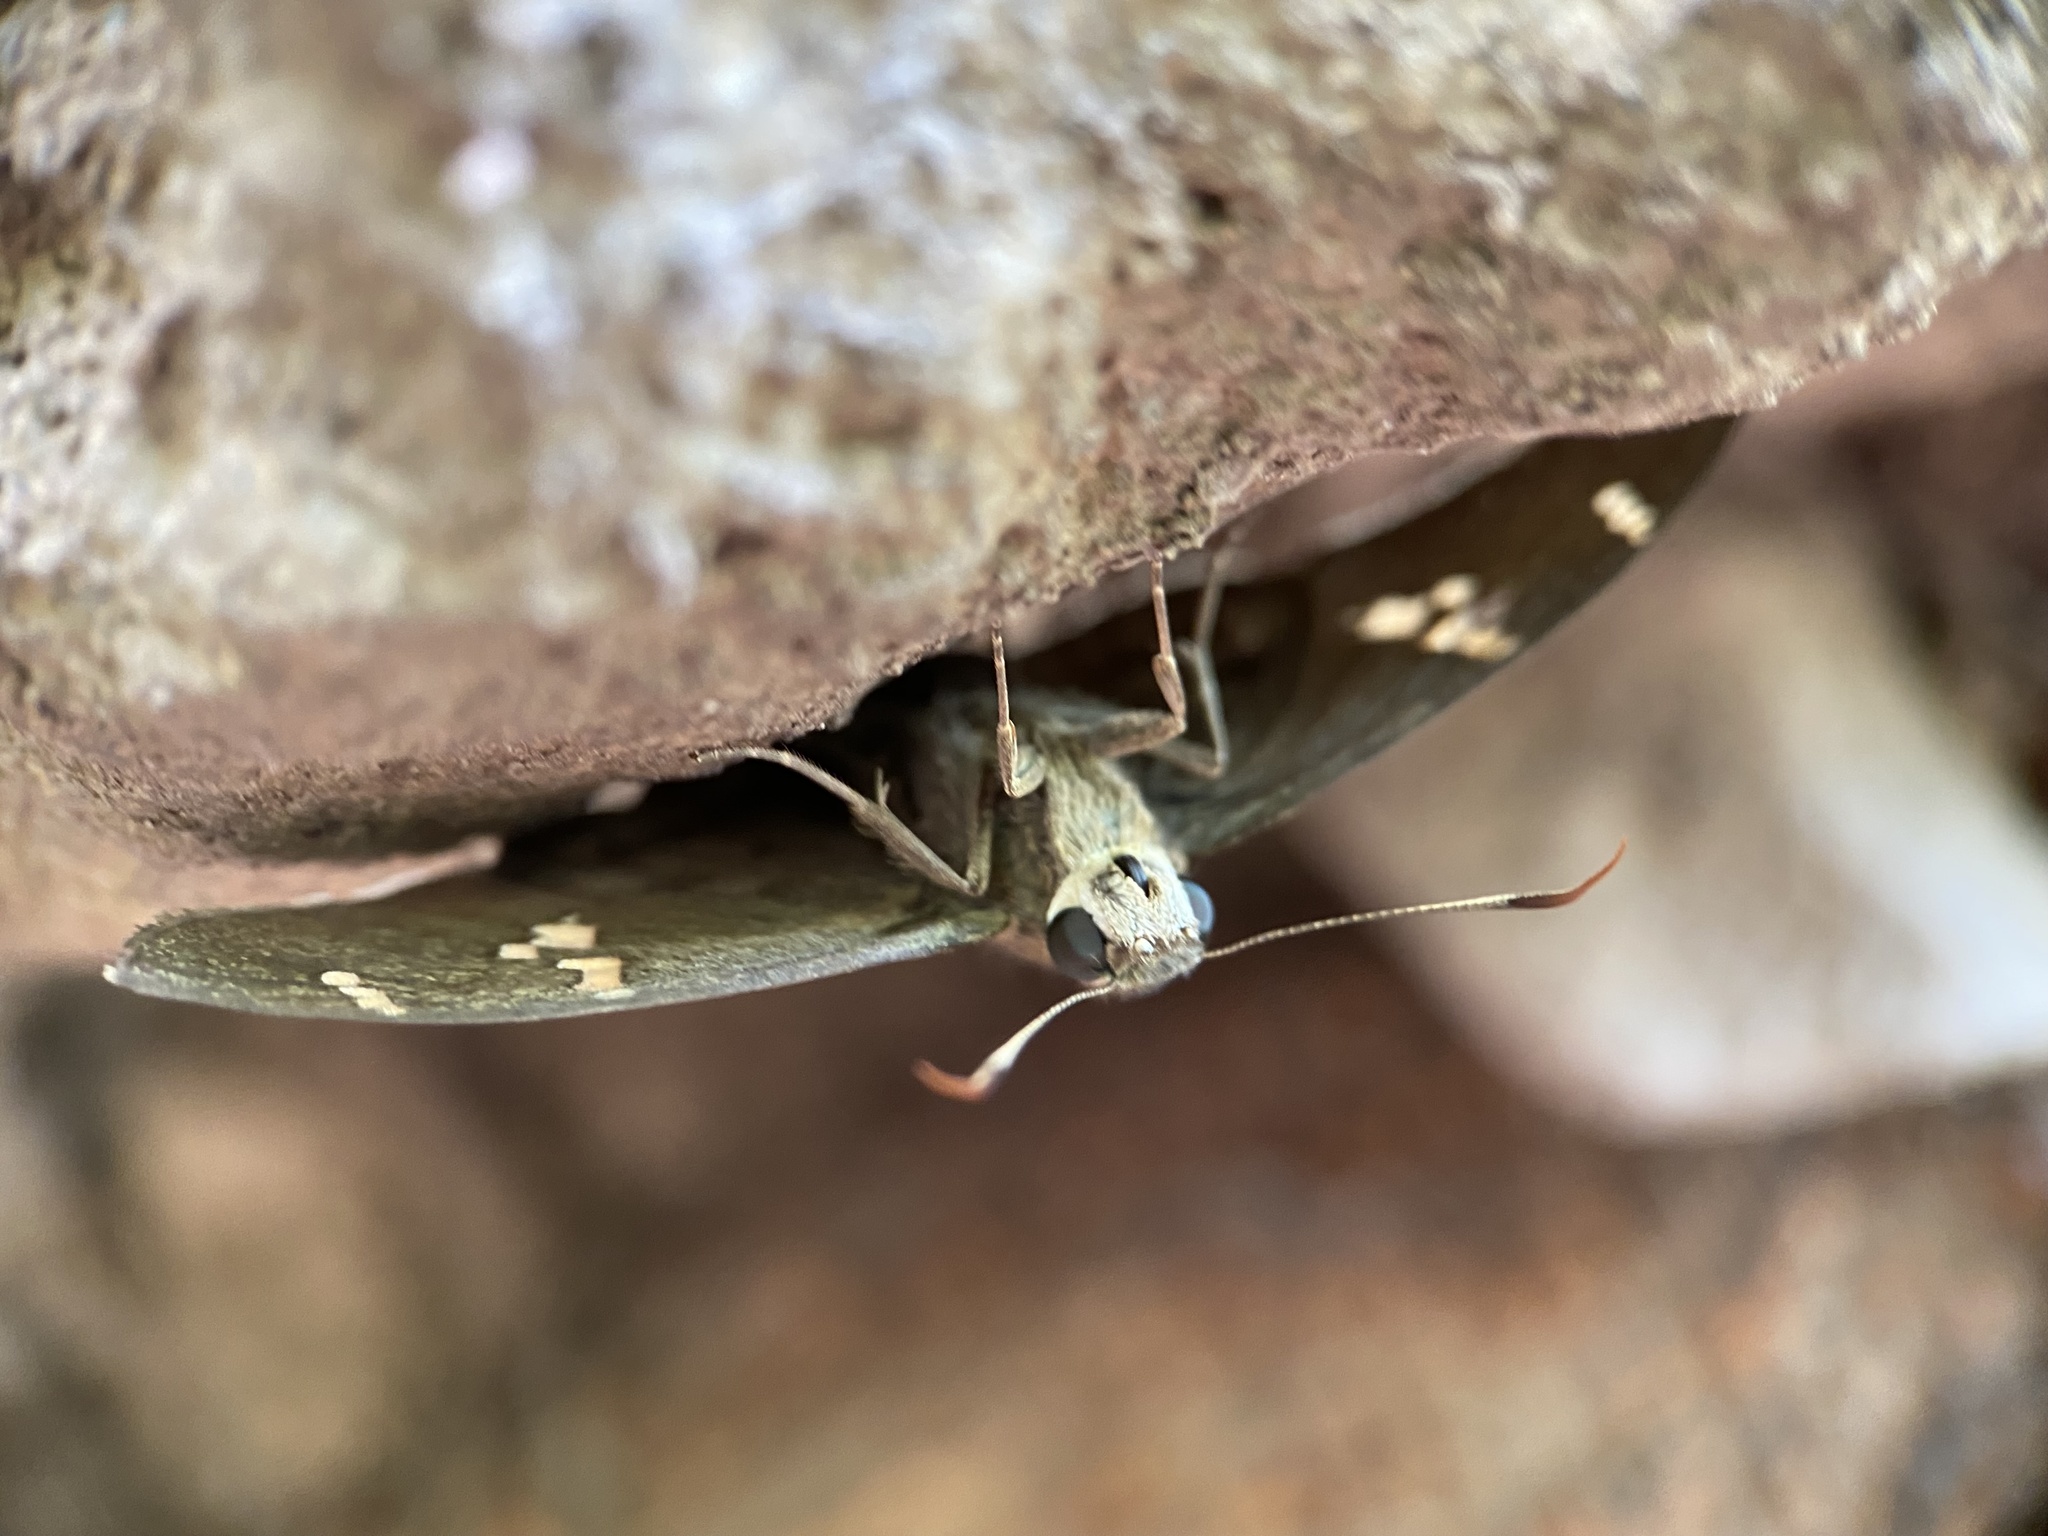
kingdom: Animalia
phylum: Arthropoda
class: Insecta
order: Lepidoptera
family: Hesperiidae
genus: Ectomis
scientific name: Ectomis
